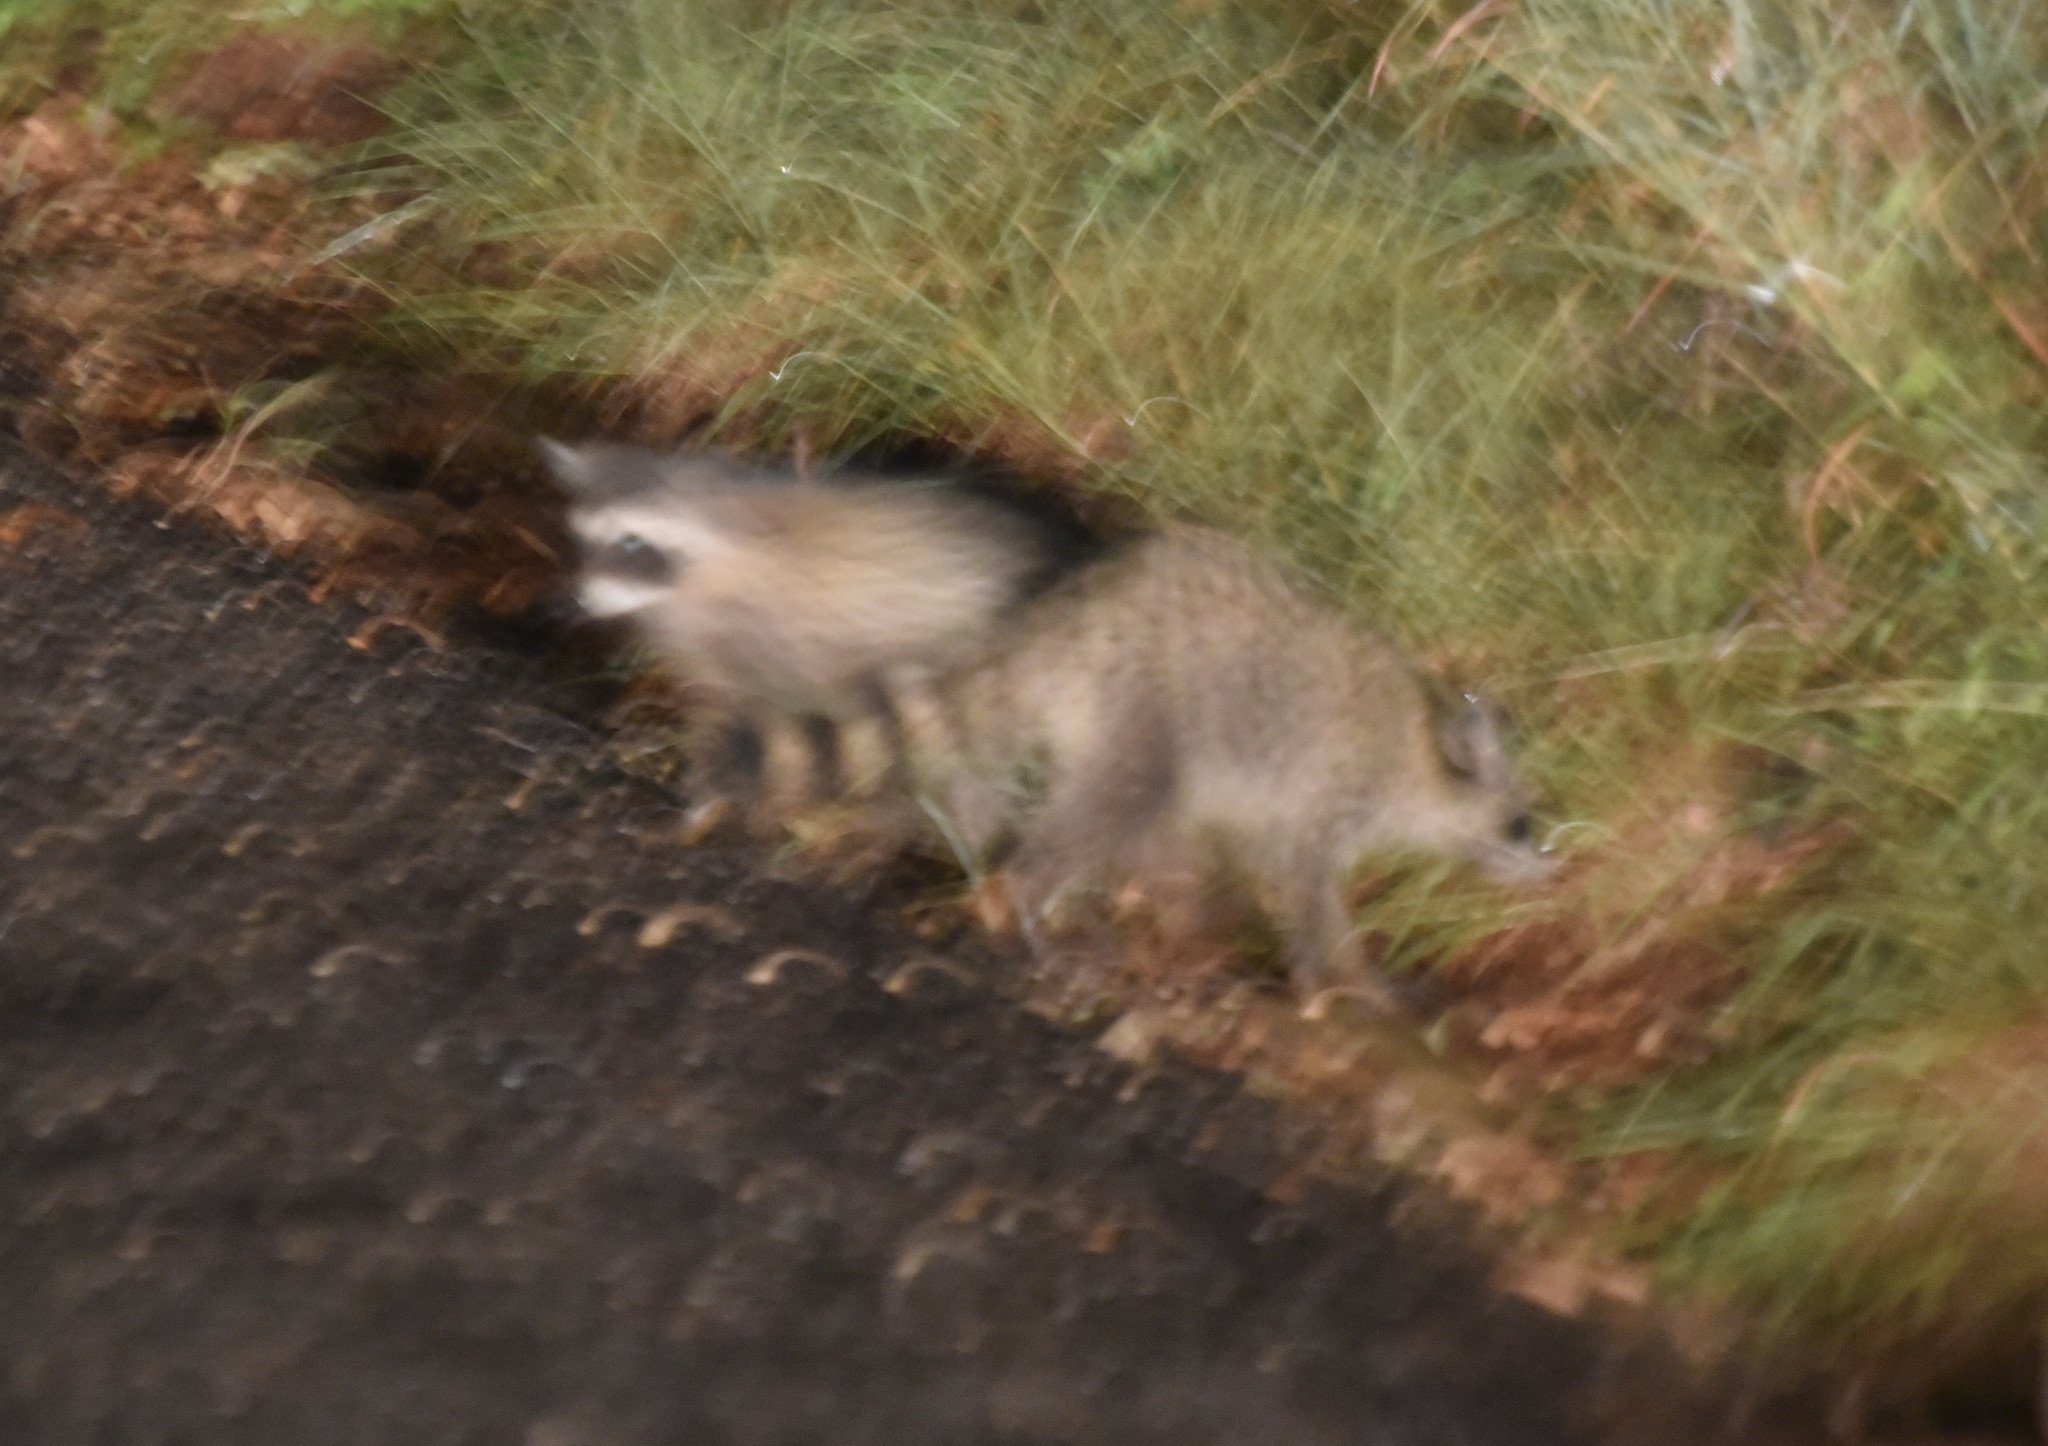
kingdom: Animalia
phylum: Chordata
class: Mammalia
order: Carnivora
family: Procyonidae
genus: Procyon
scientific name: Procyon lotor
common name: Raccoon
